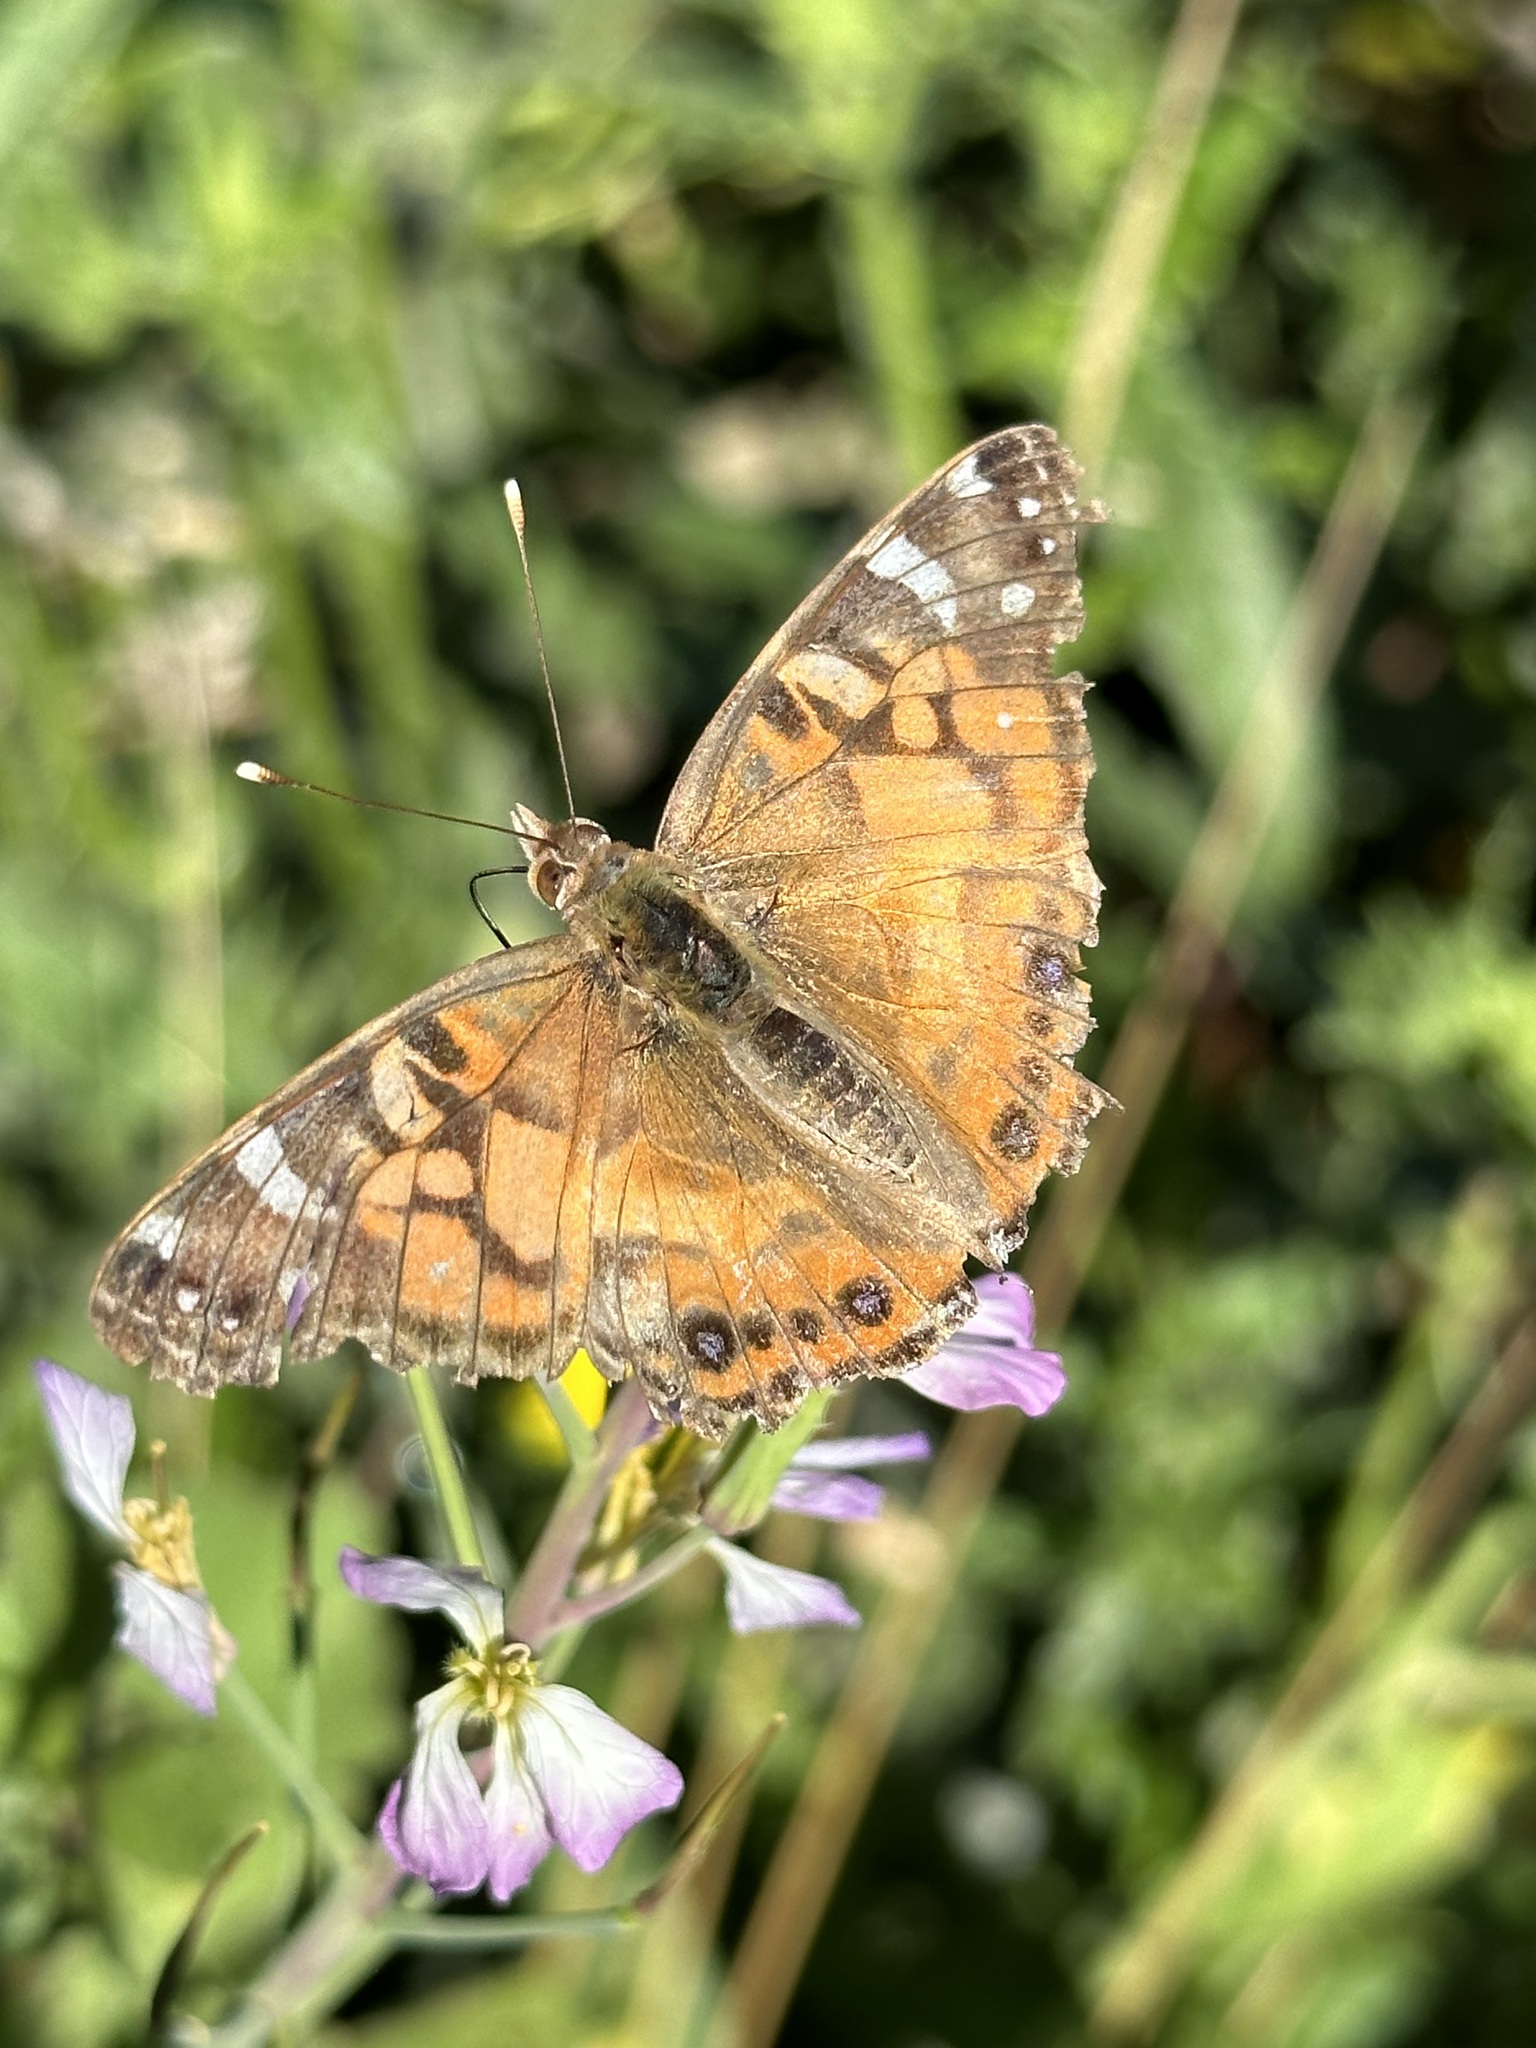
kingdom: Animalia
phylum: Arthropoda
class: Insecta
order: Lepidoptera
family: Nymphalidae
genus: Vanessa
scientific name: Vanessa virginiensis
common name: American lady
